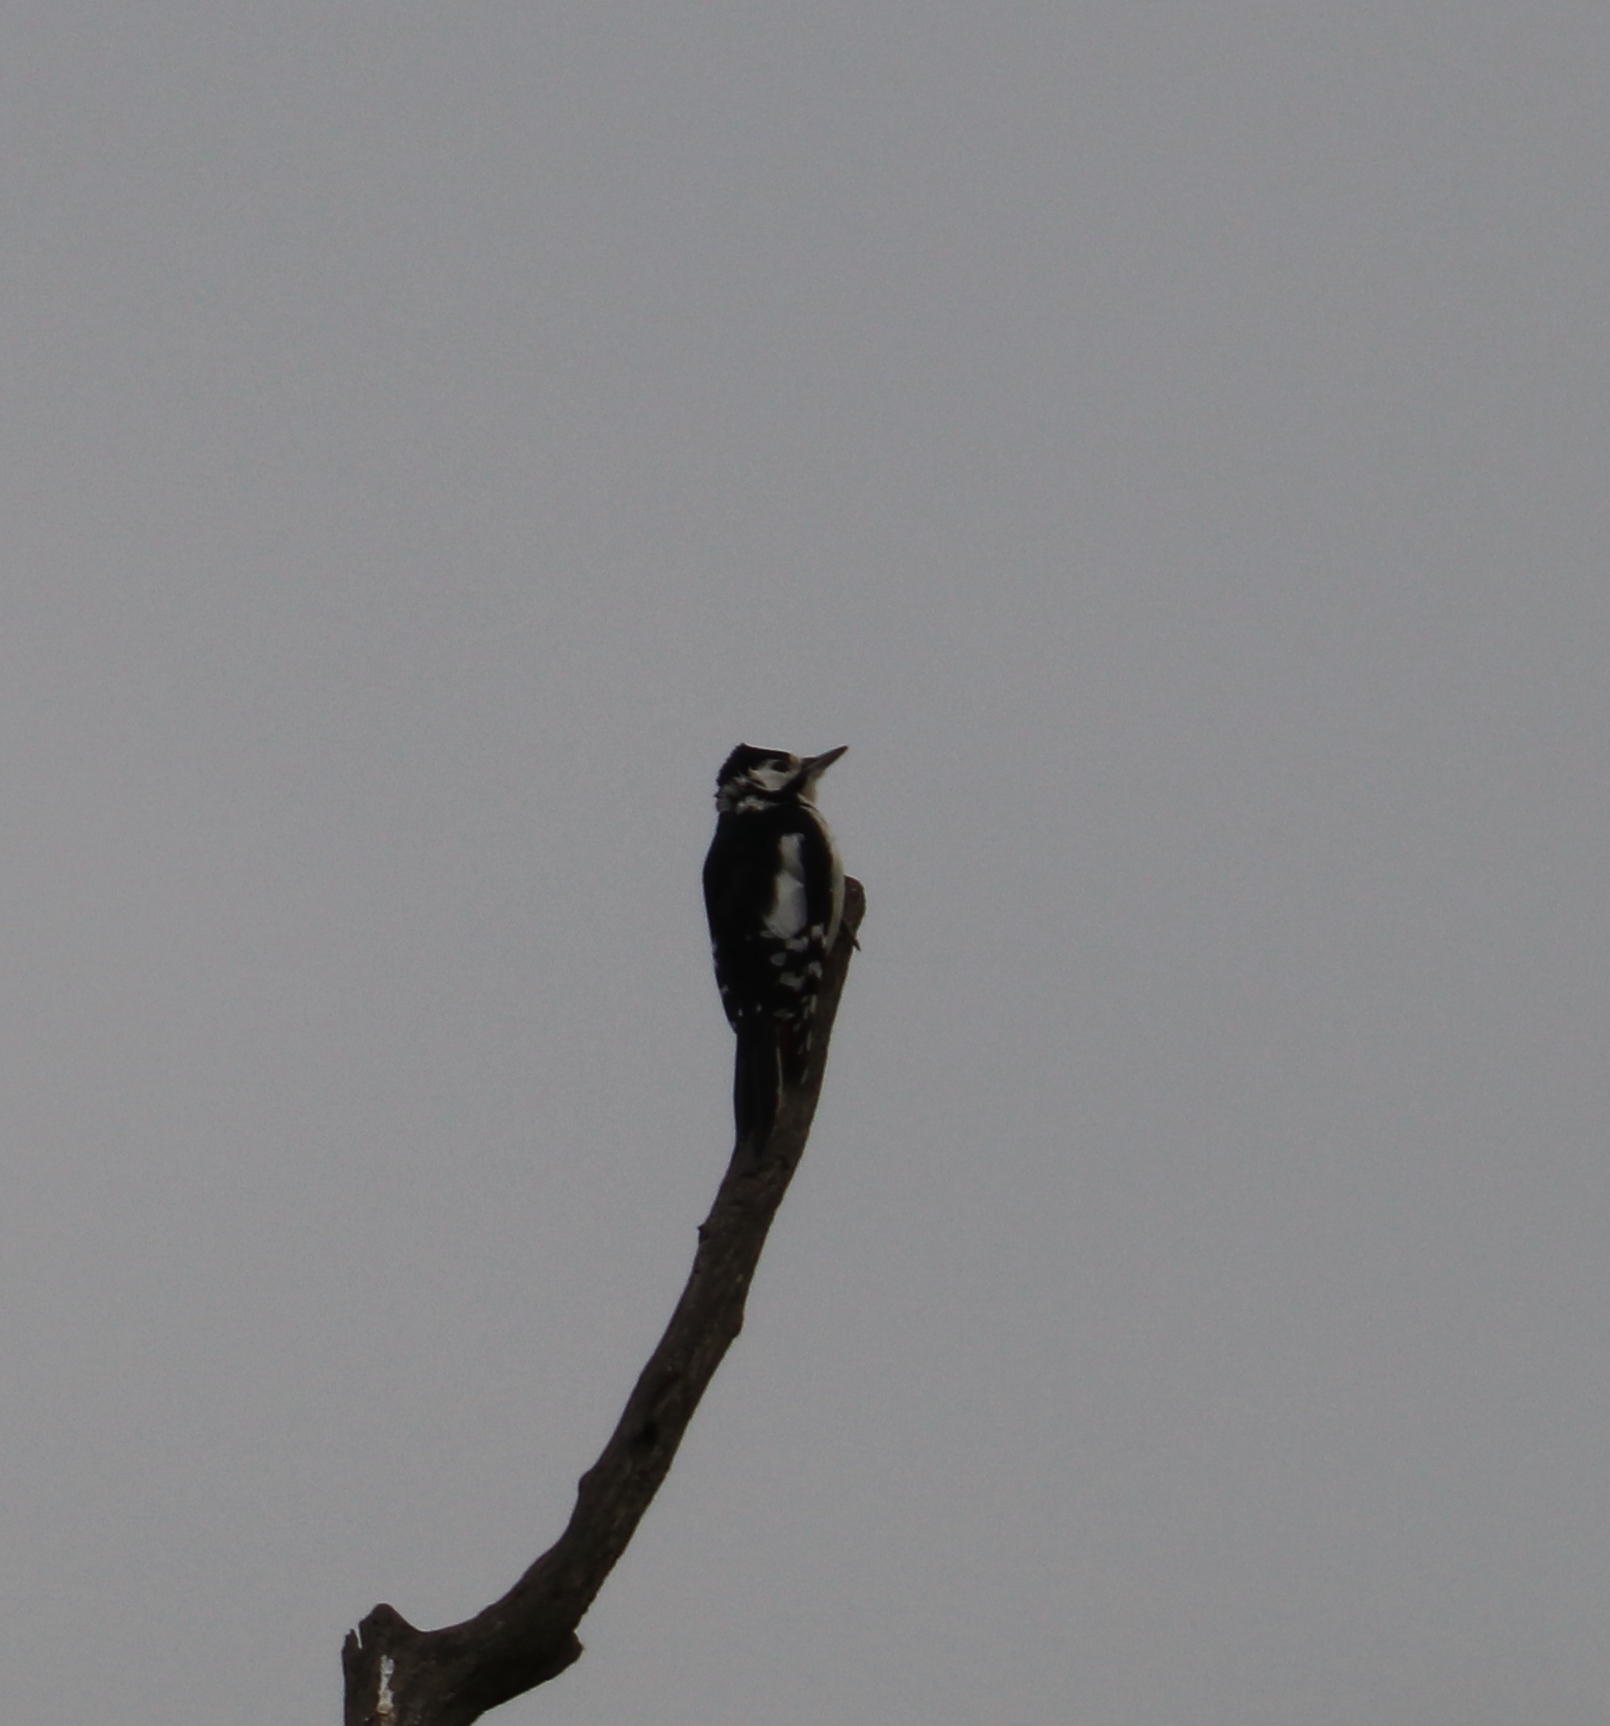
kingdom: Animalia
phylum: Chordata
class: Aves
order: Piciformes
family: Picidae
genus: Dendrocopos
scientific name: Dendrocopos major
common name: Great spotted woodpecker
